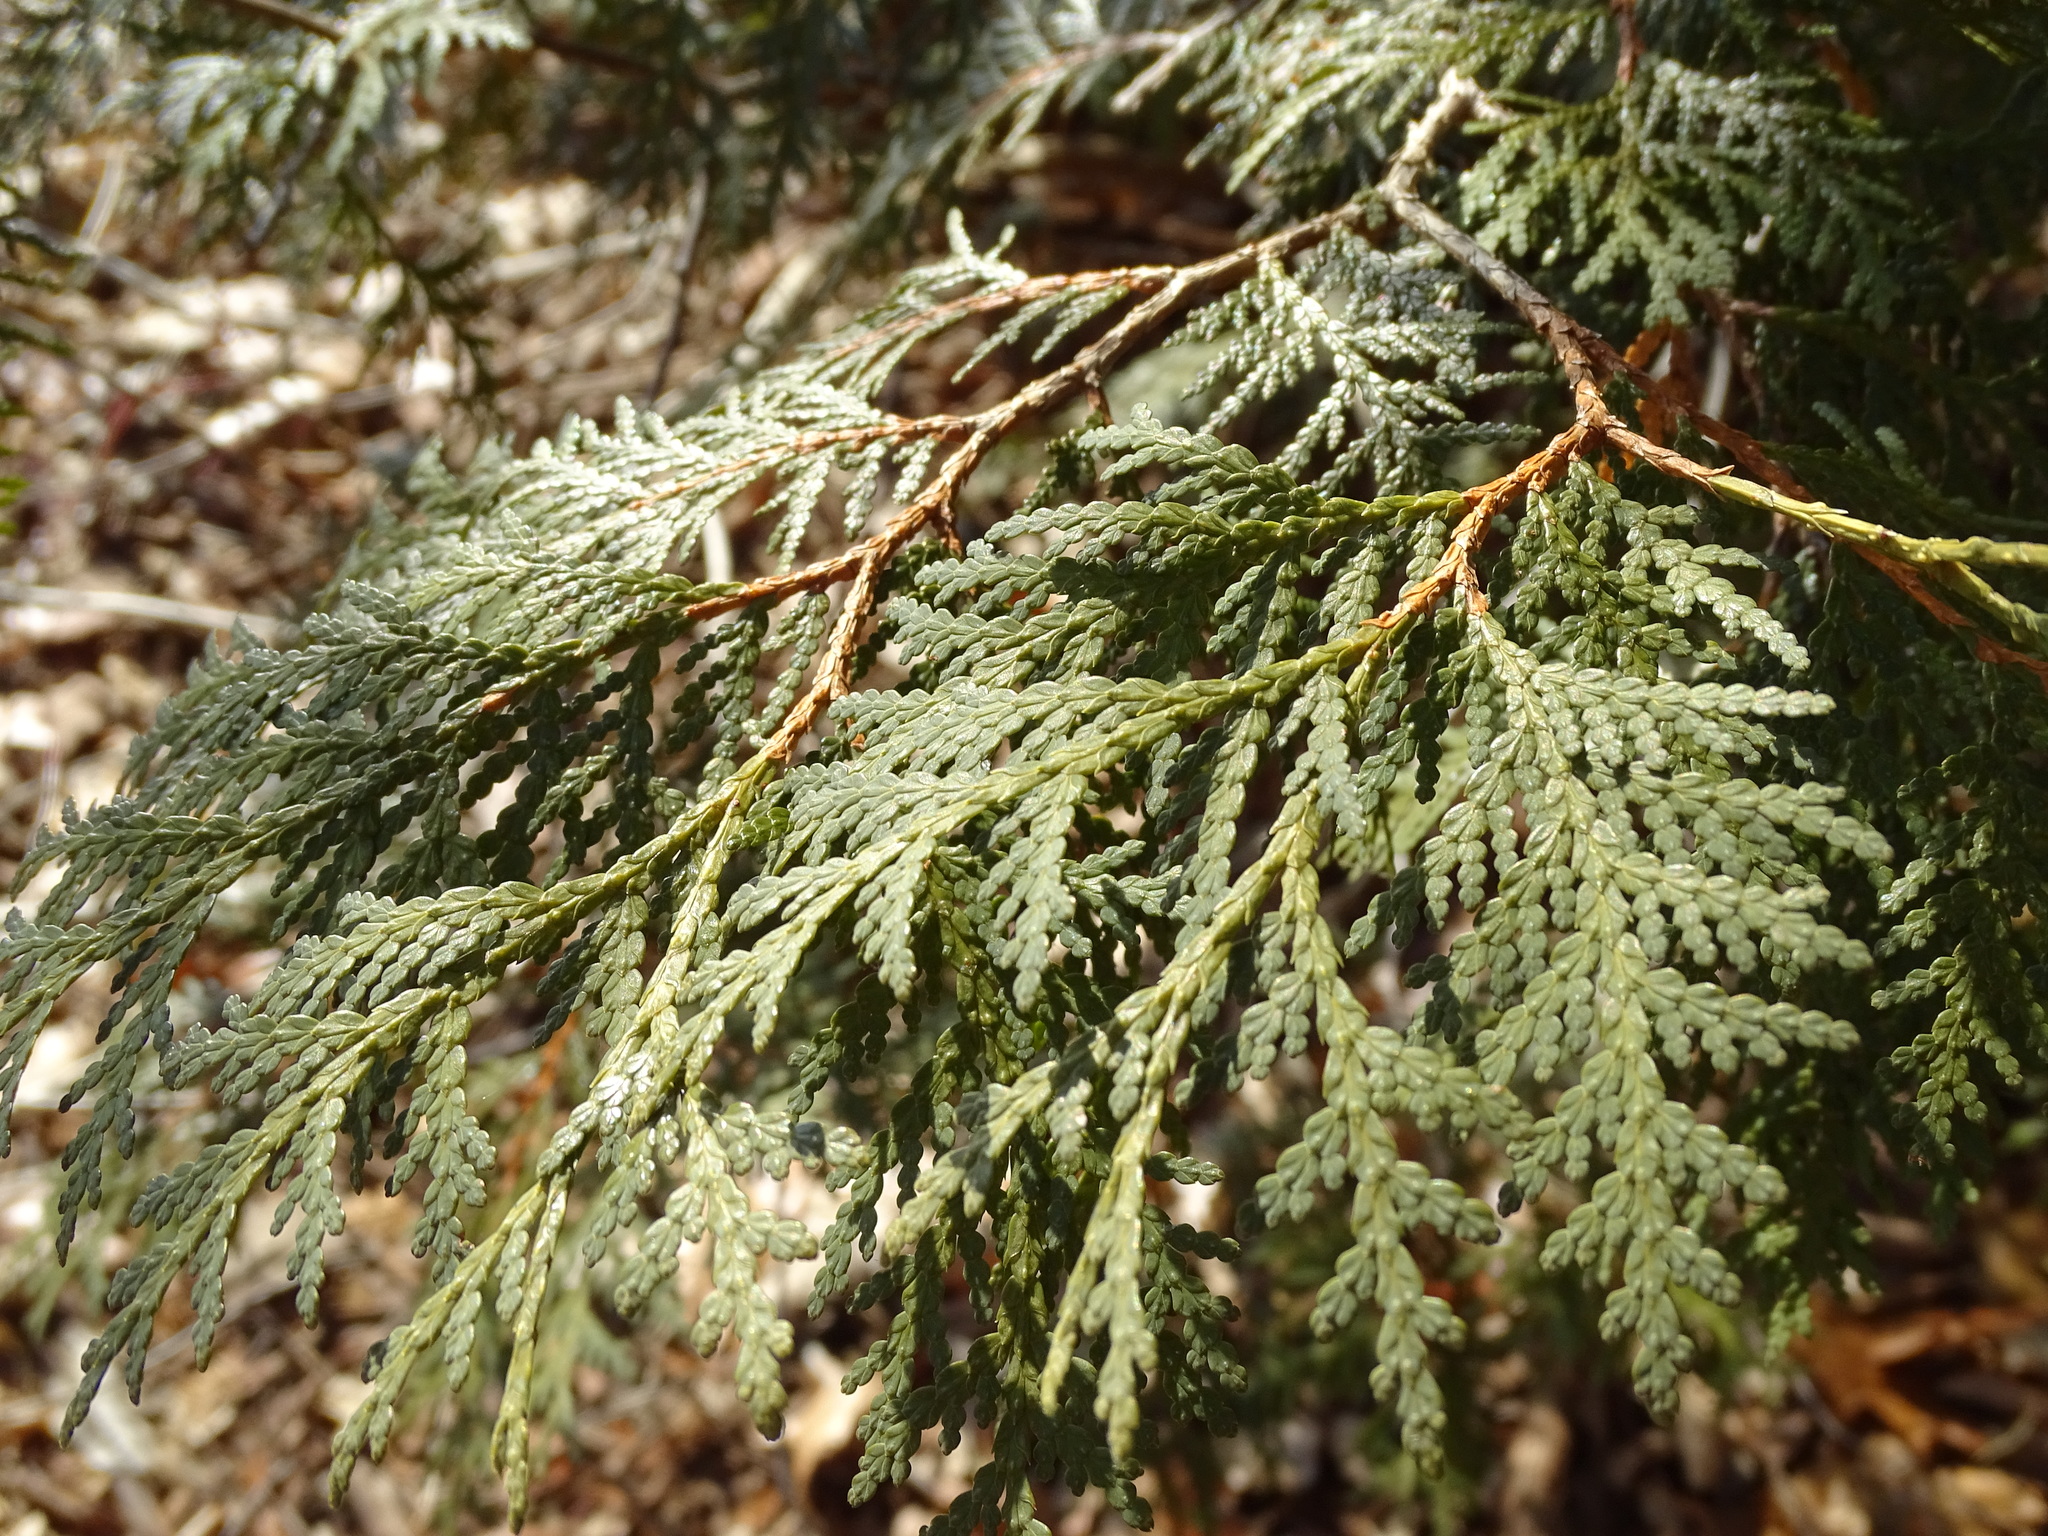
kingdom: Plantae
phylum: Tracheophyta
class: Pinopsida
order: Pinales
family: Cupressaceae
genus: Thuja
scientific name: Thuja occidentalis
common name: Northern white-cedar
